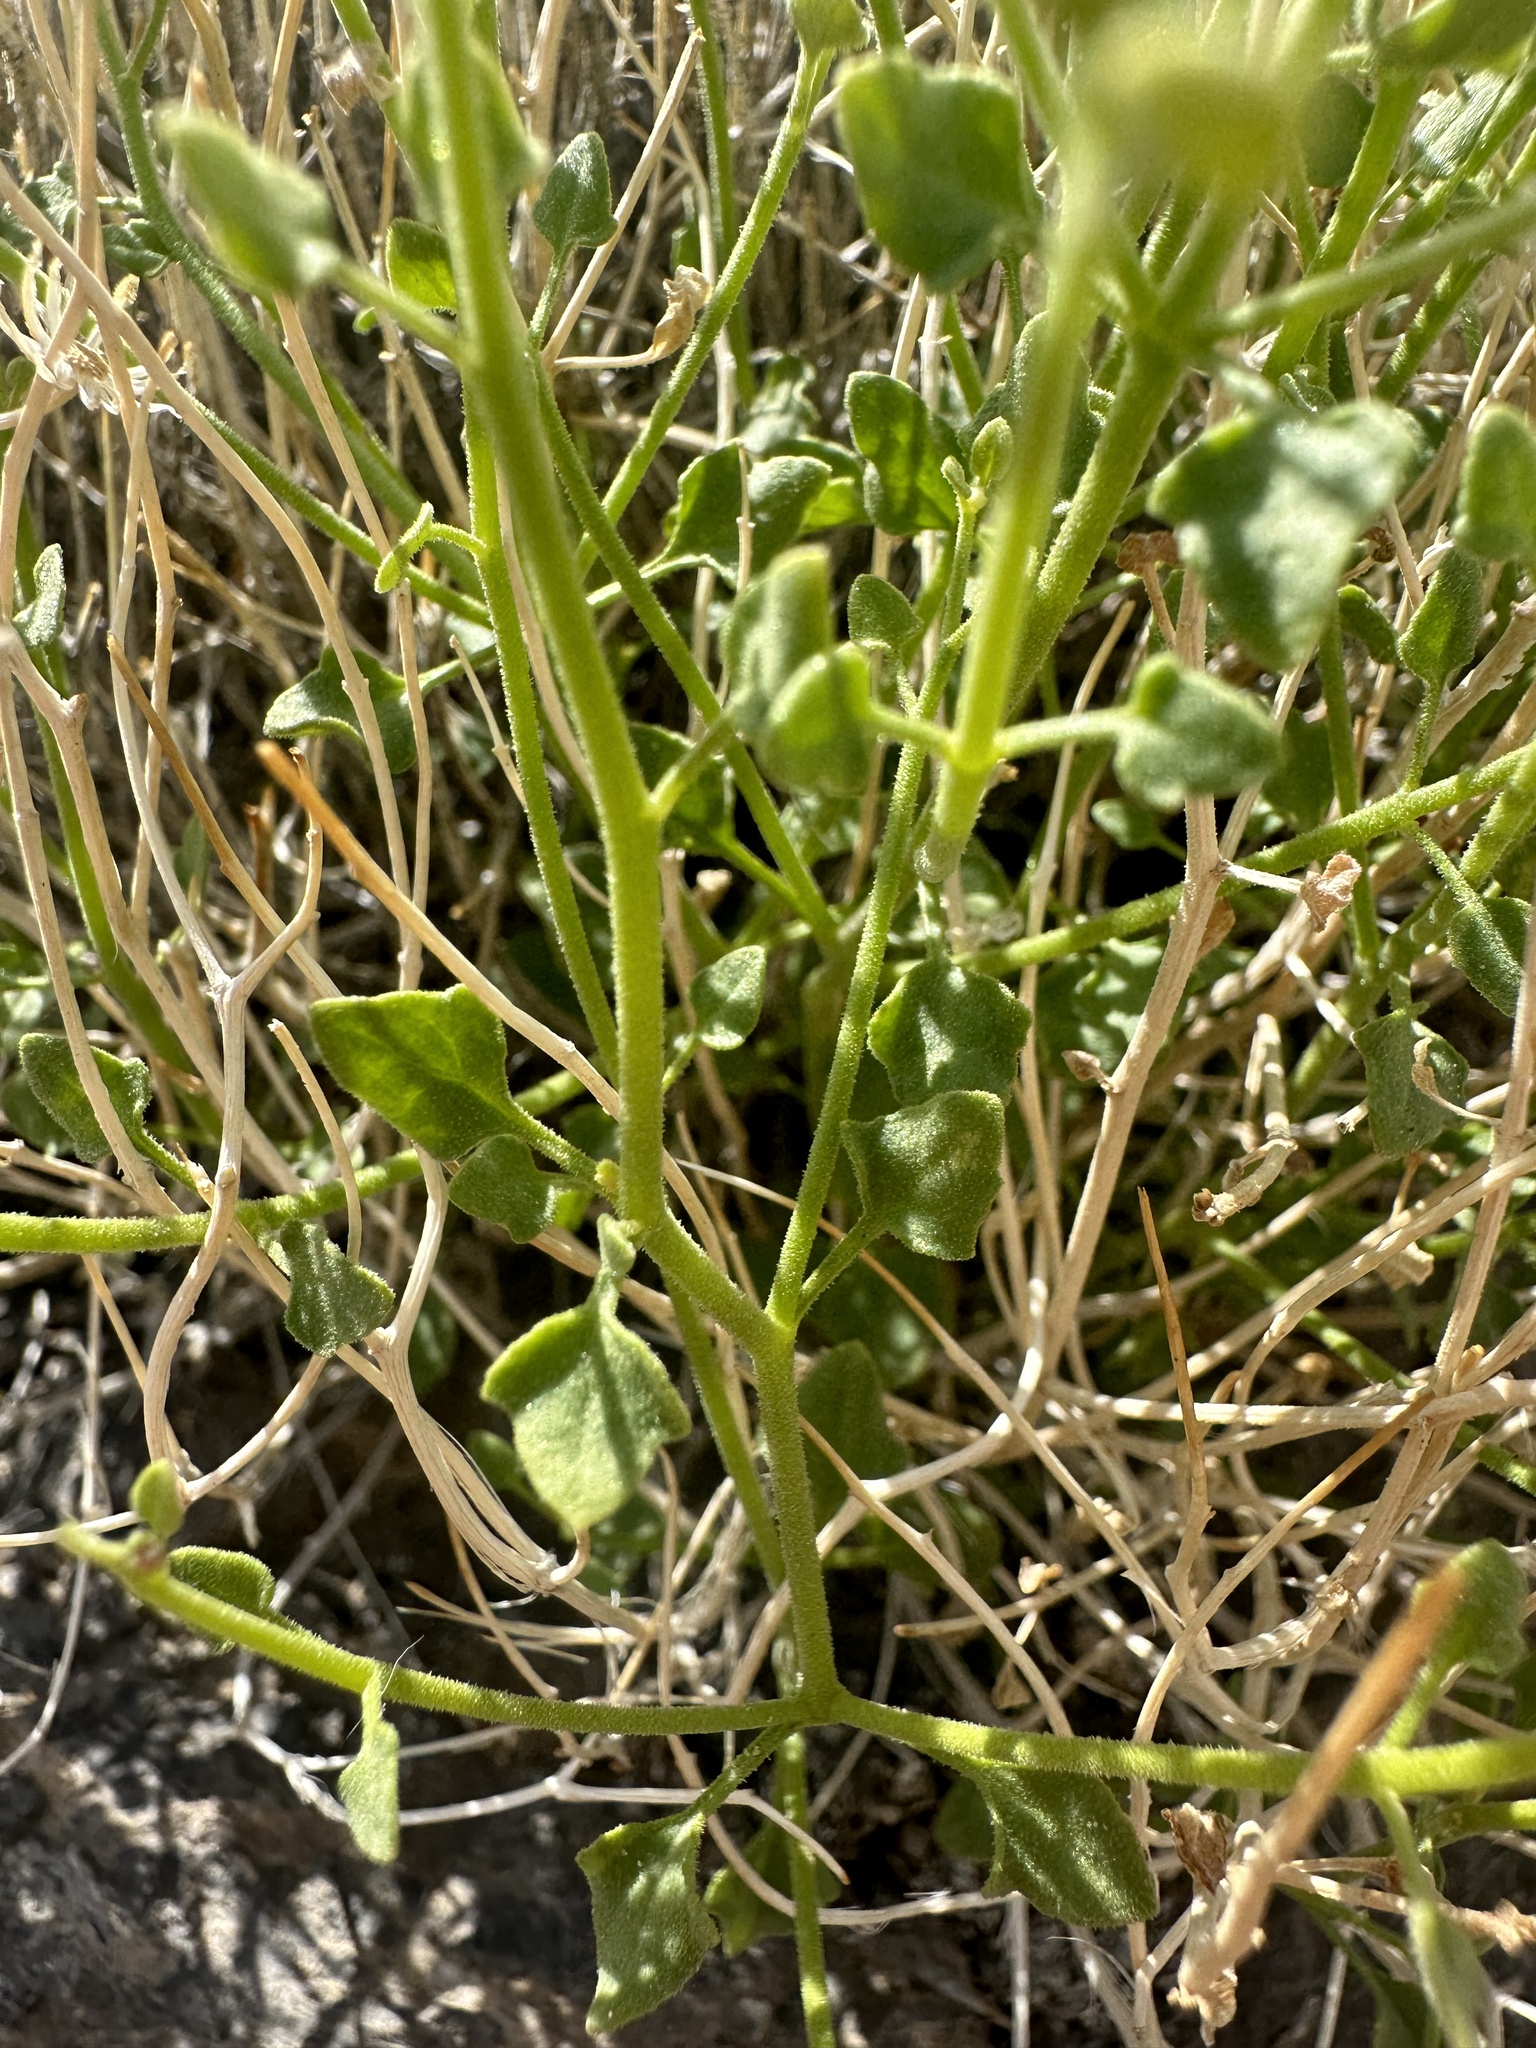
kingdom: Plantae
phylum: Tracheophyta
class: Magnoliopsida
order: Asterales
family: Asteraceae
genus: Laphamia
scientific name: Laphamia stansburyi
